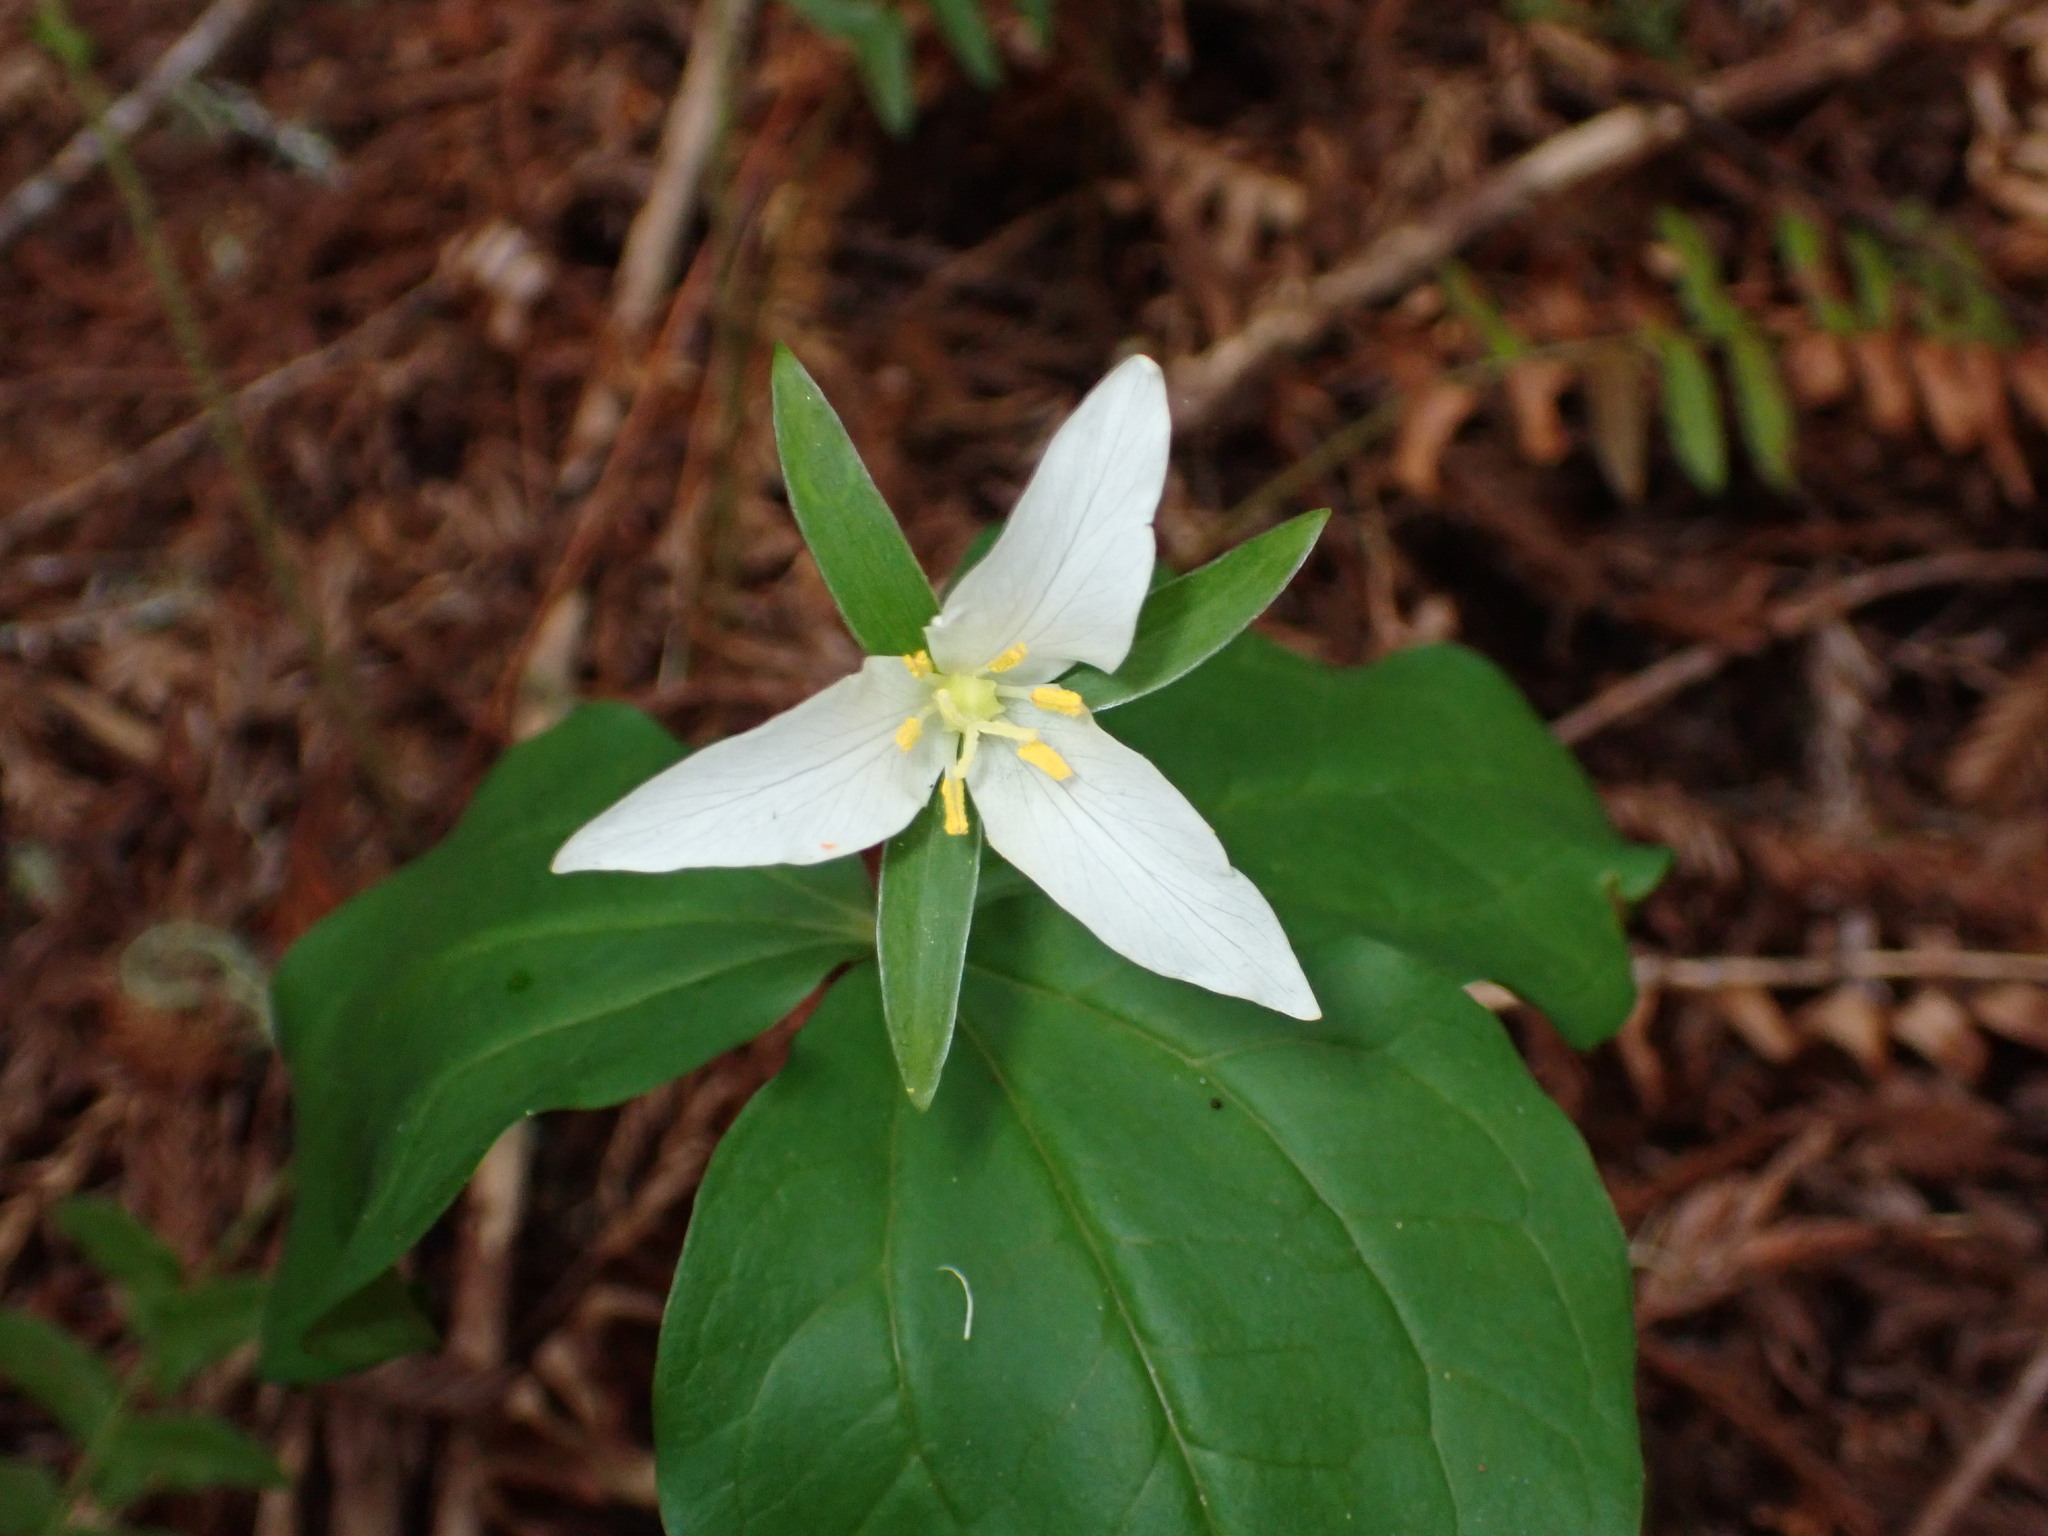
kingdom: Plantae
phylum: Tracheophyta
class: Liliopsida
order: Liliales
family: Melanthiaceae
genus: Trillium
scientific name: Trillium ovatum
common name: Pacific trillium
